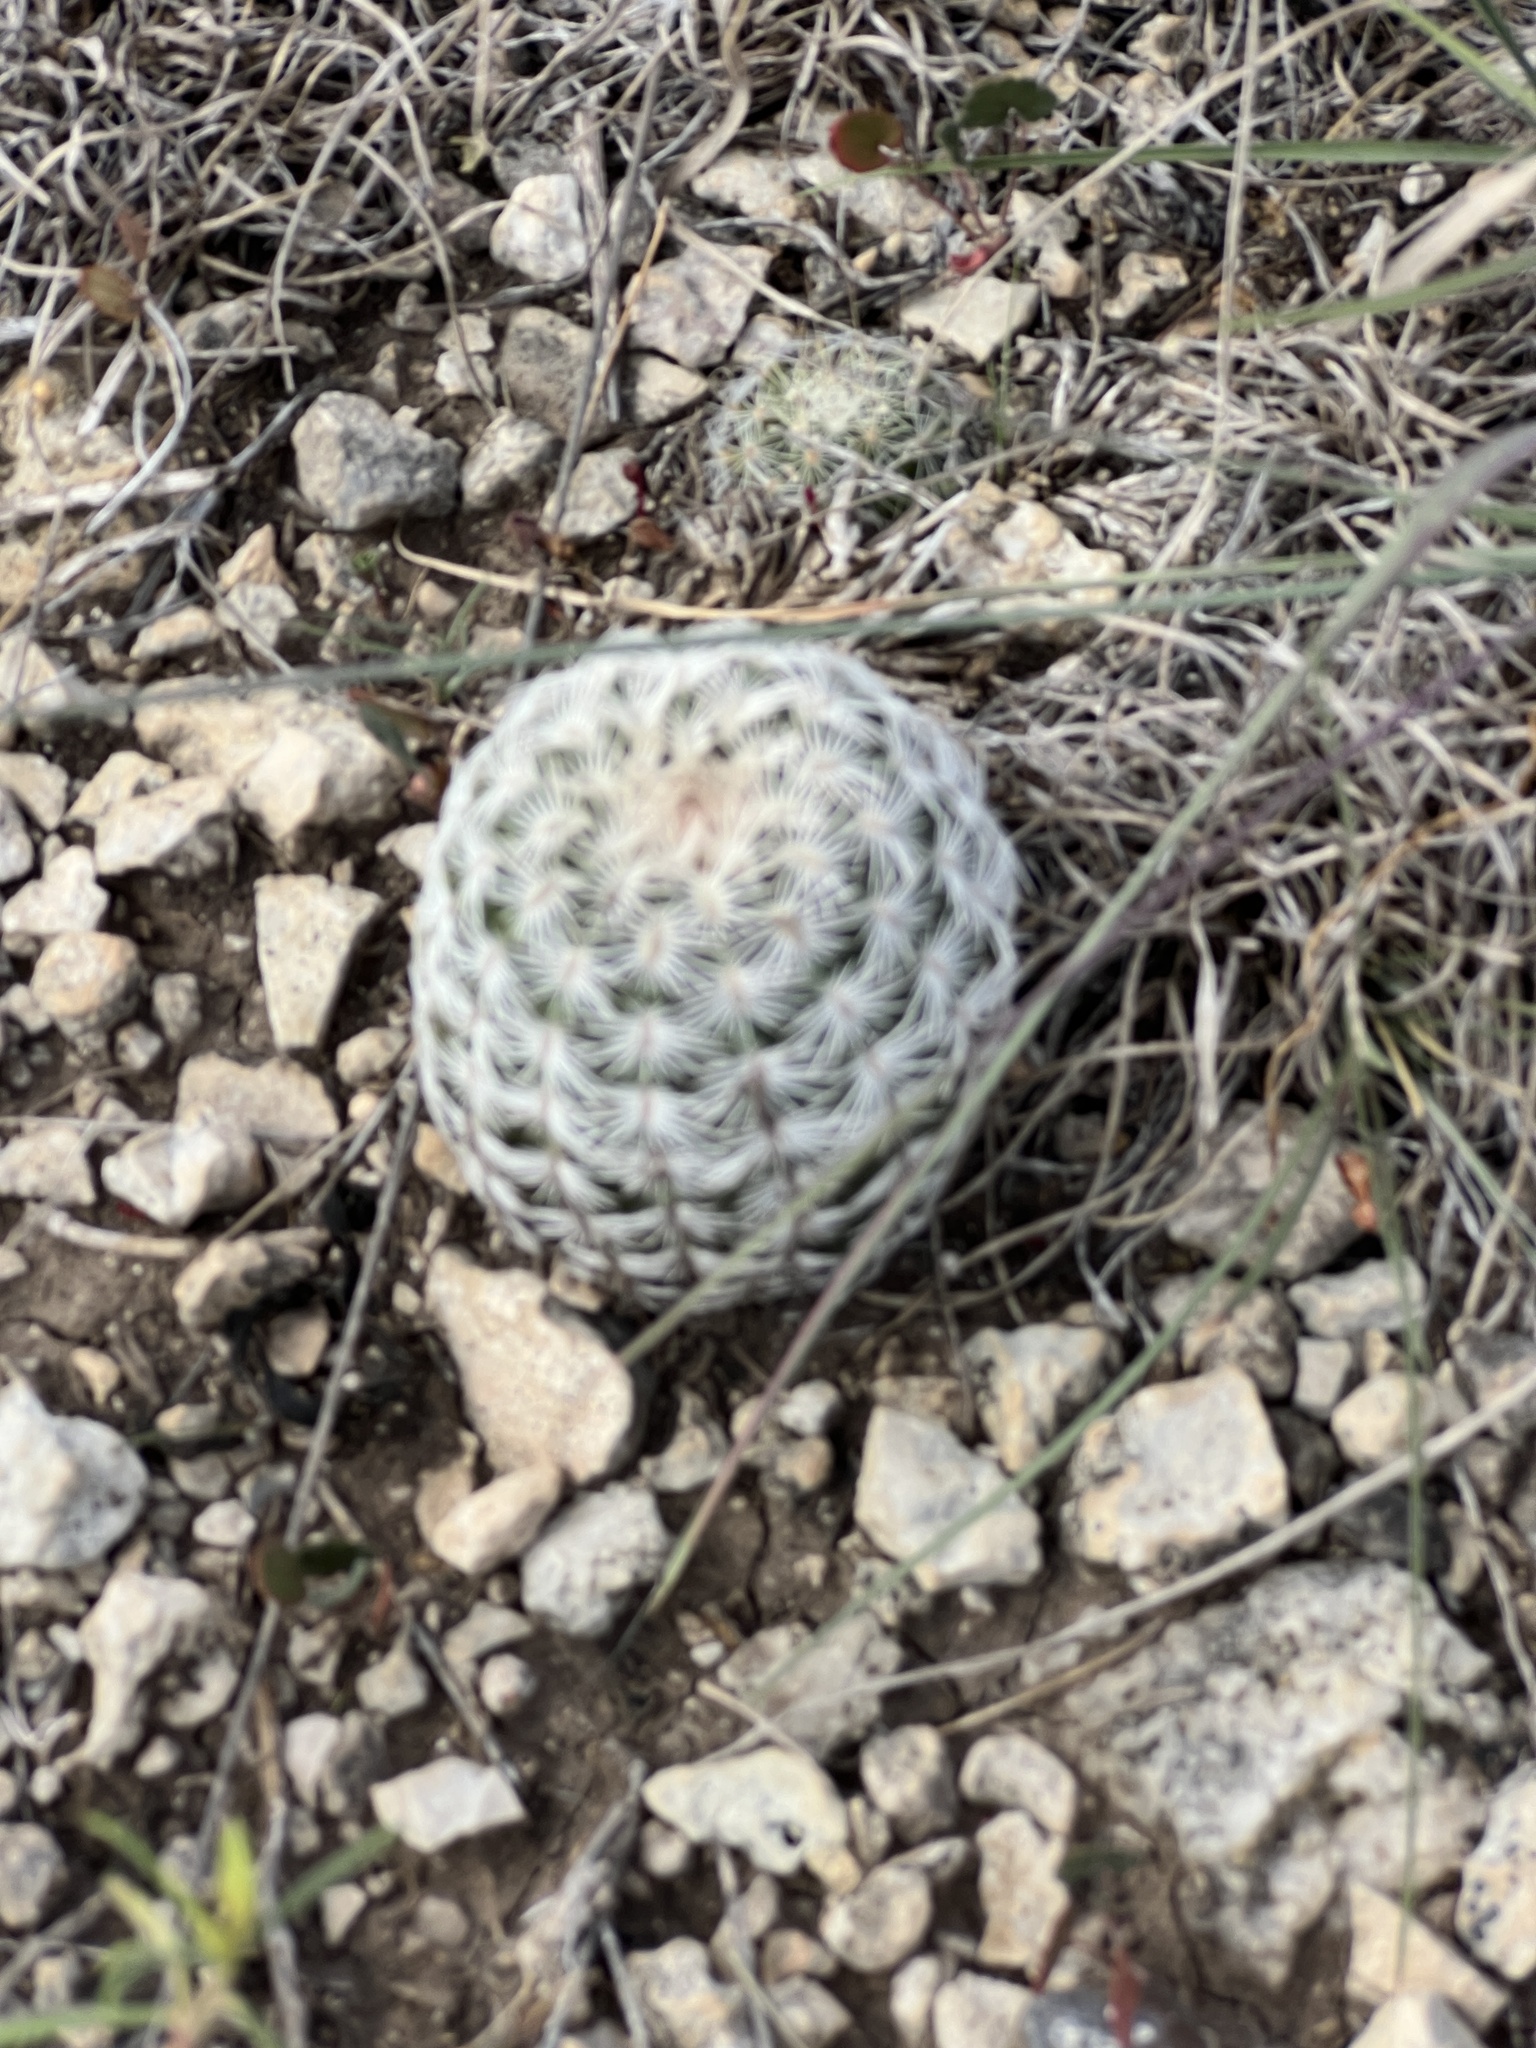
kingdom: Plantae
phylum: Tracheophyta
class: Magnoliopsida
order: Caryophyllales
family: Cactaceae
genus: Echinocereus
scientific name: Echinocereus reichenbachii
